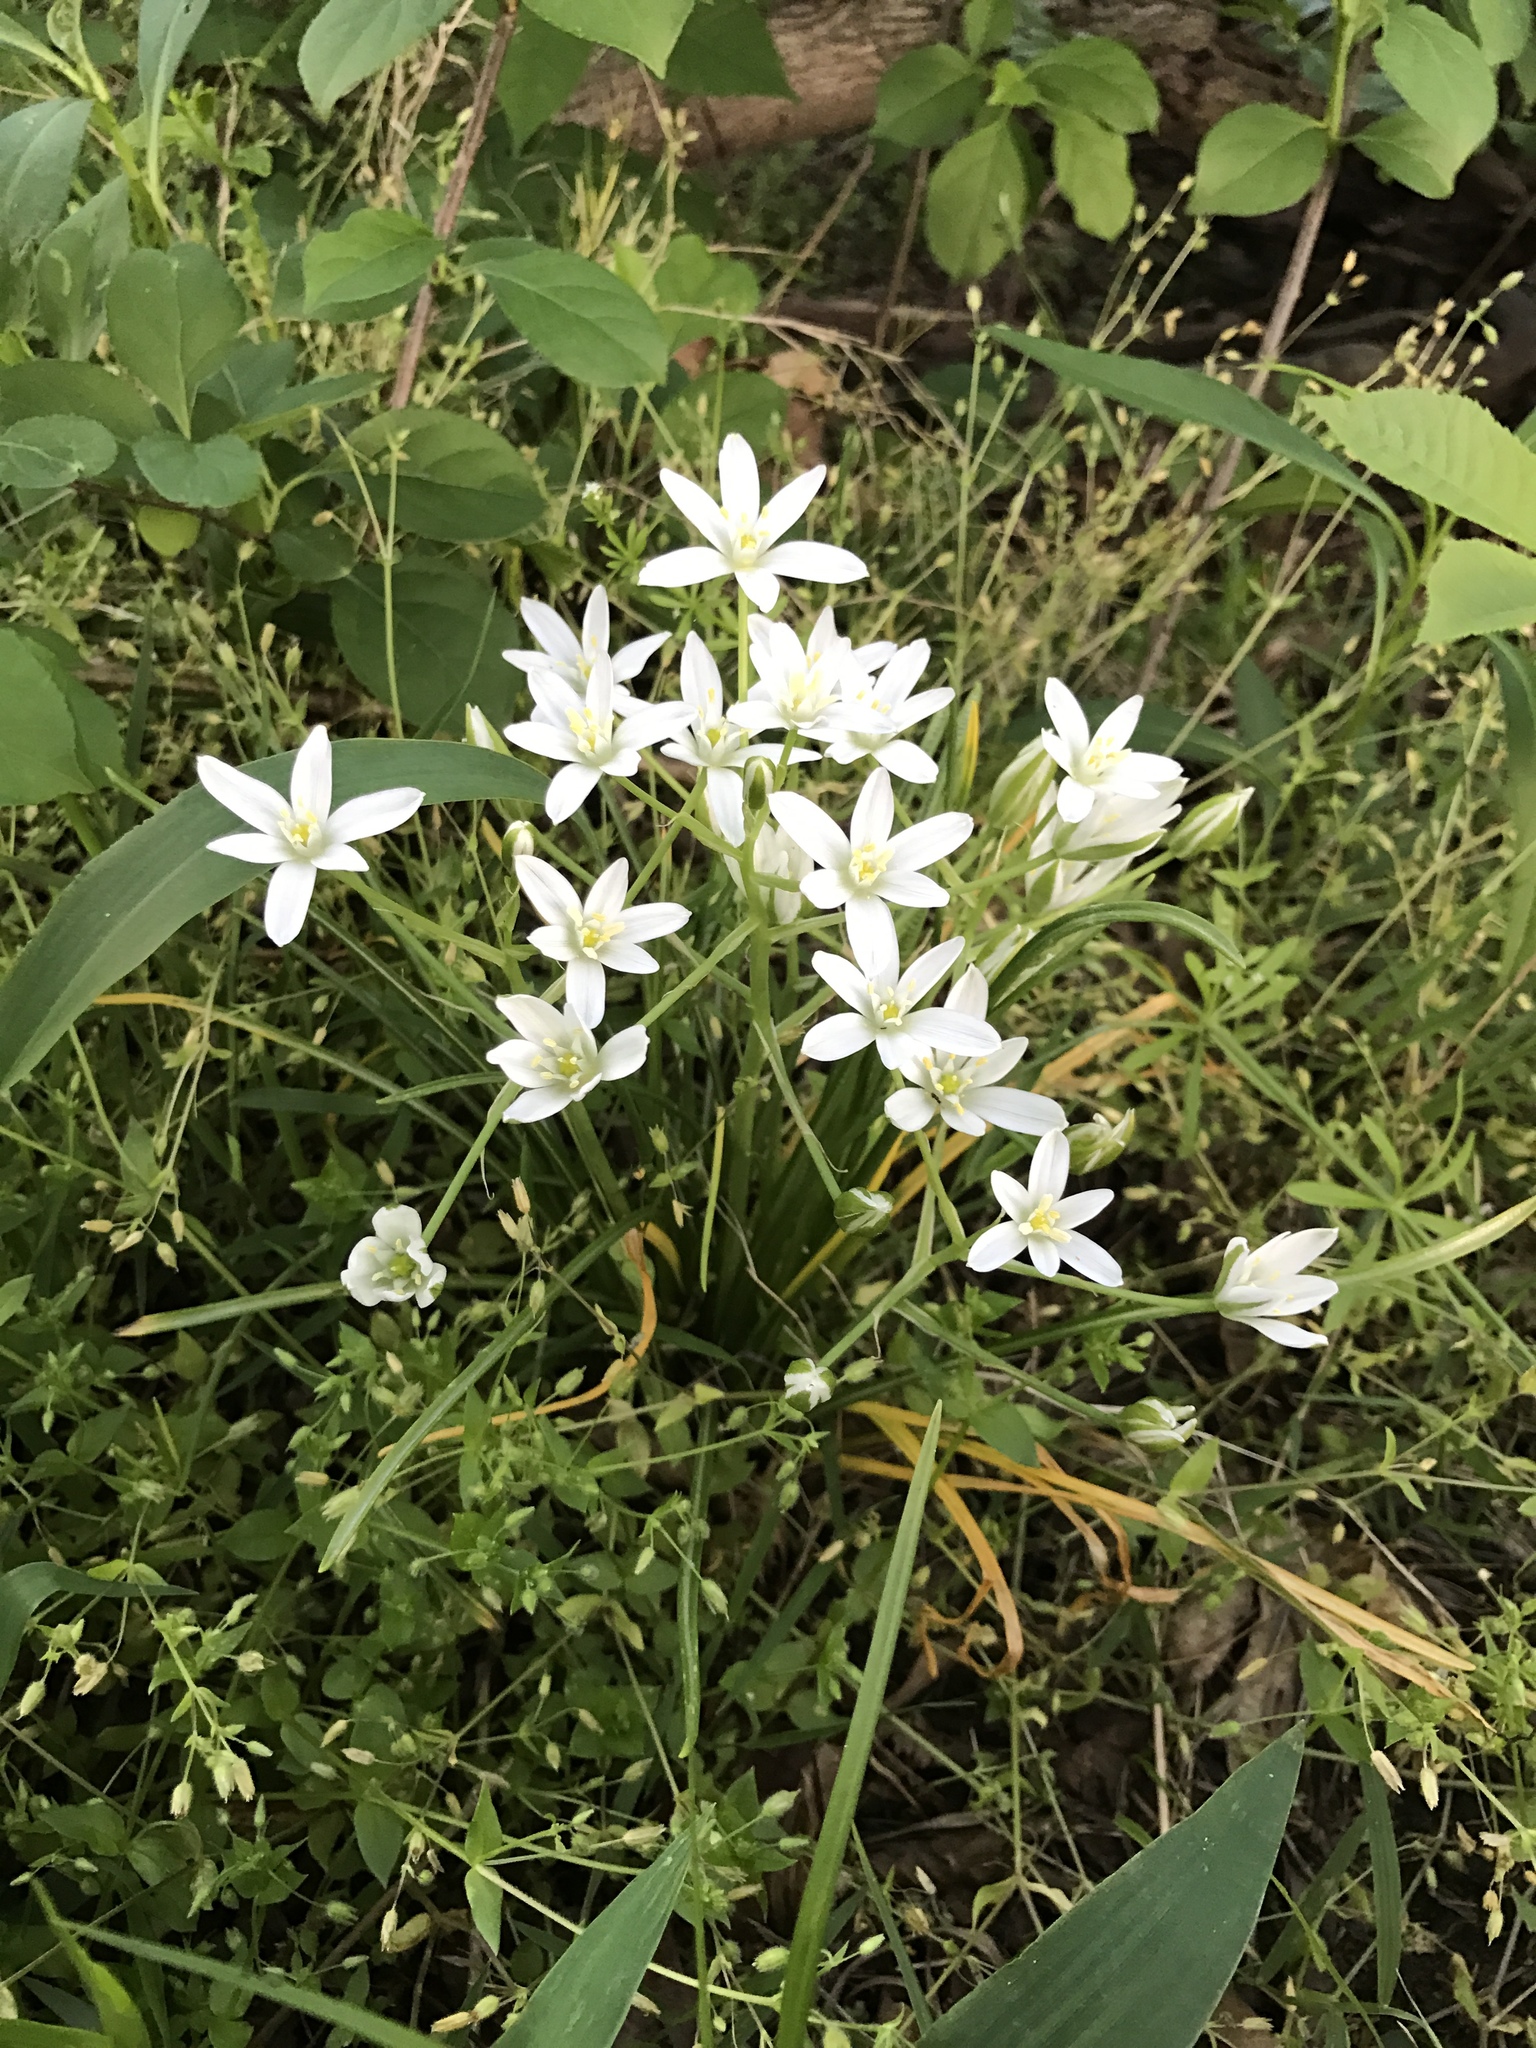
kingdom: Plantae
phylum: Tracheophyta
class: Liliopsida
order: Asparagales
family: Asparagaceae
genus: Ornithogalum
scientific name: Ornithogalum umbellatum
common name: Garden star-of-bethlehem
